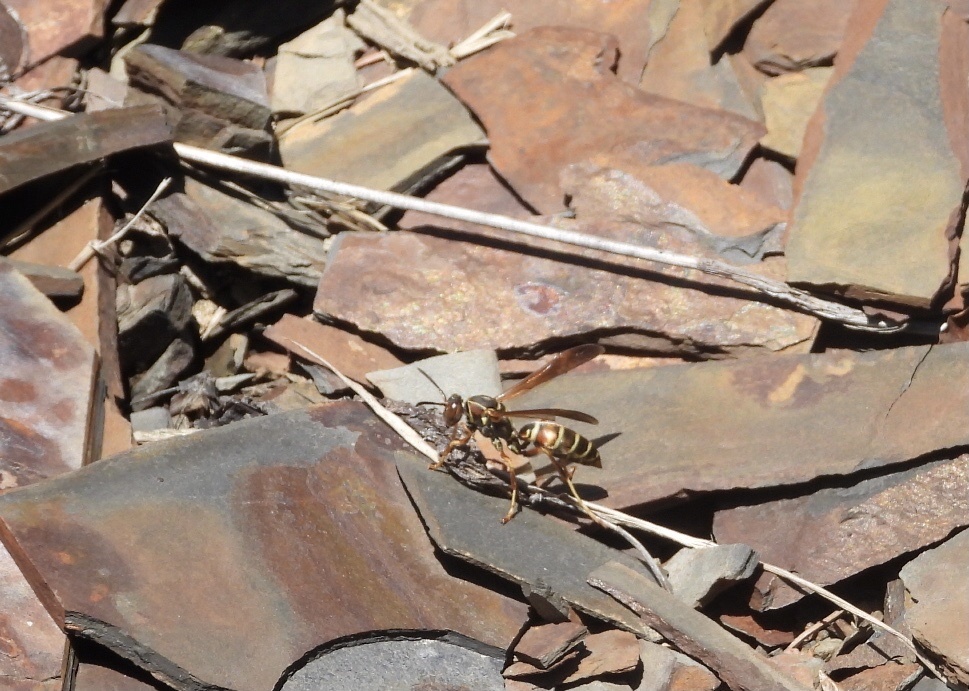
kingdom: Animalia
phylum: Arthropoda
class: Insecta
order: Hymenoptera
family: Eumenidae
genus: Polistes
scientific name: Polistes fuscatus
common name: Dark paper wasp
